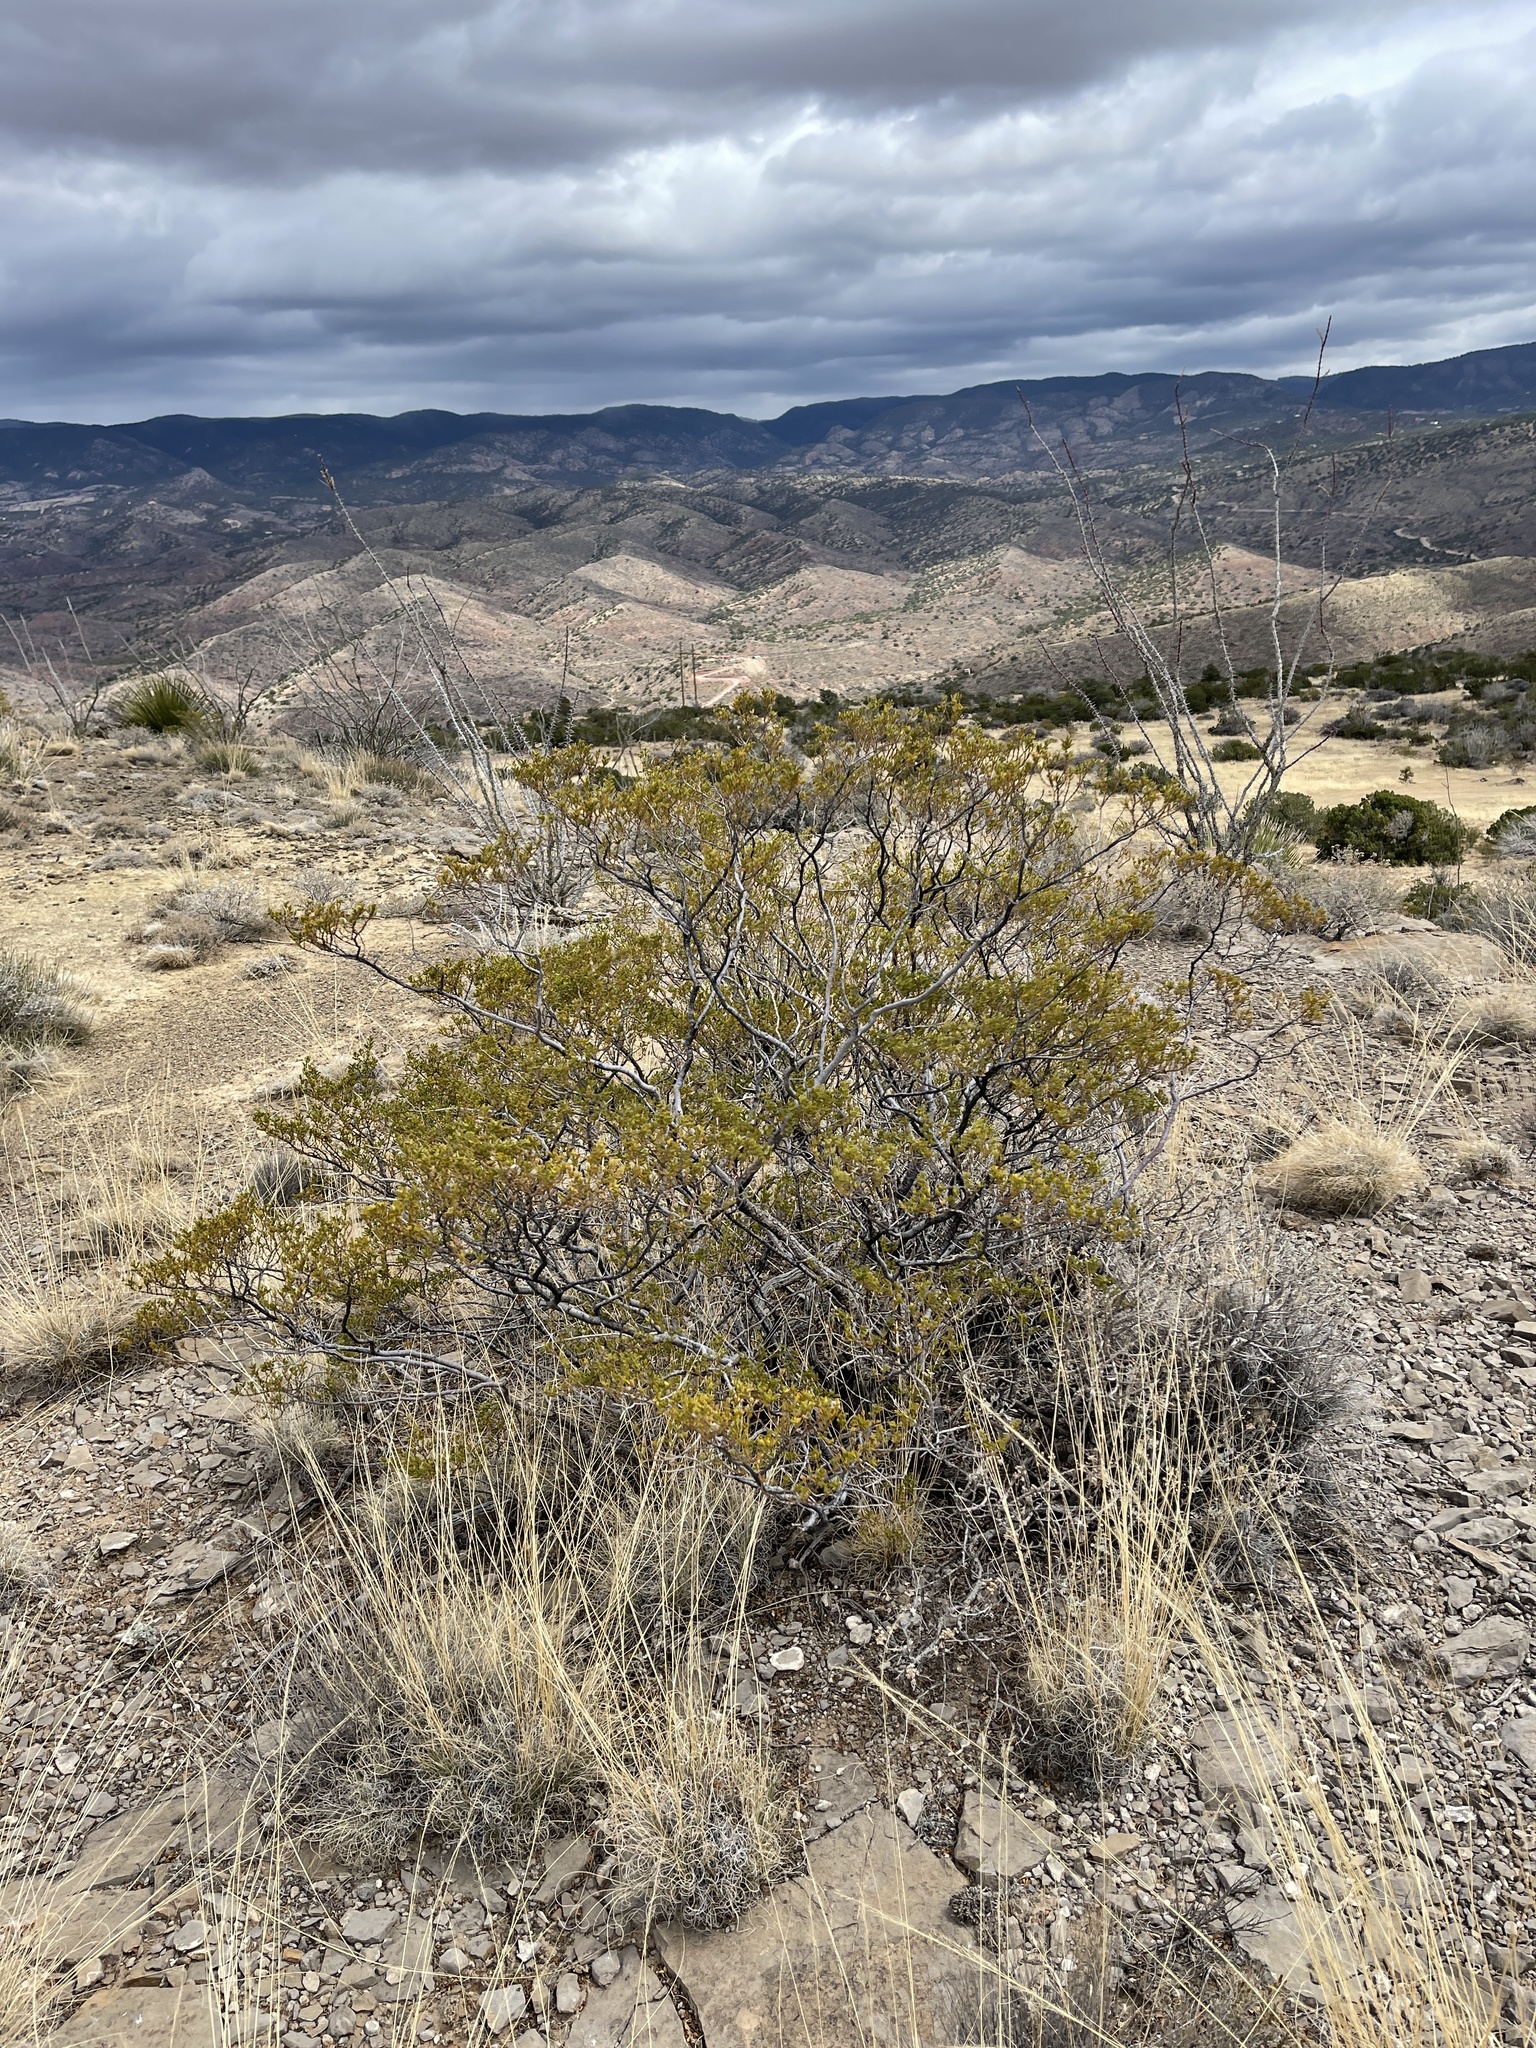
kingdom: Plantae
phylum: Tracheophyta
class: Magnoliopsida
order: Zygophyllales
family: Zygophyllaceae
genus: Larrea
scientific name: Larrea tridentata
